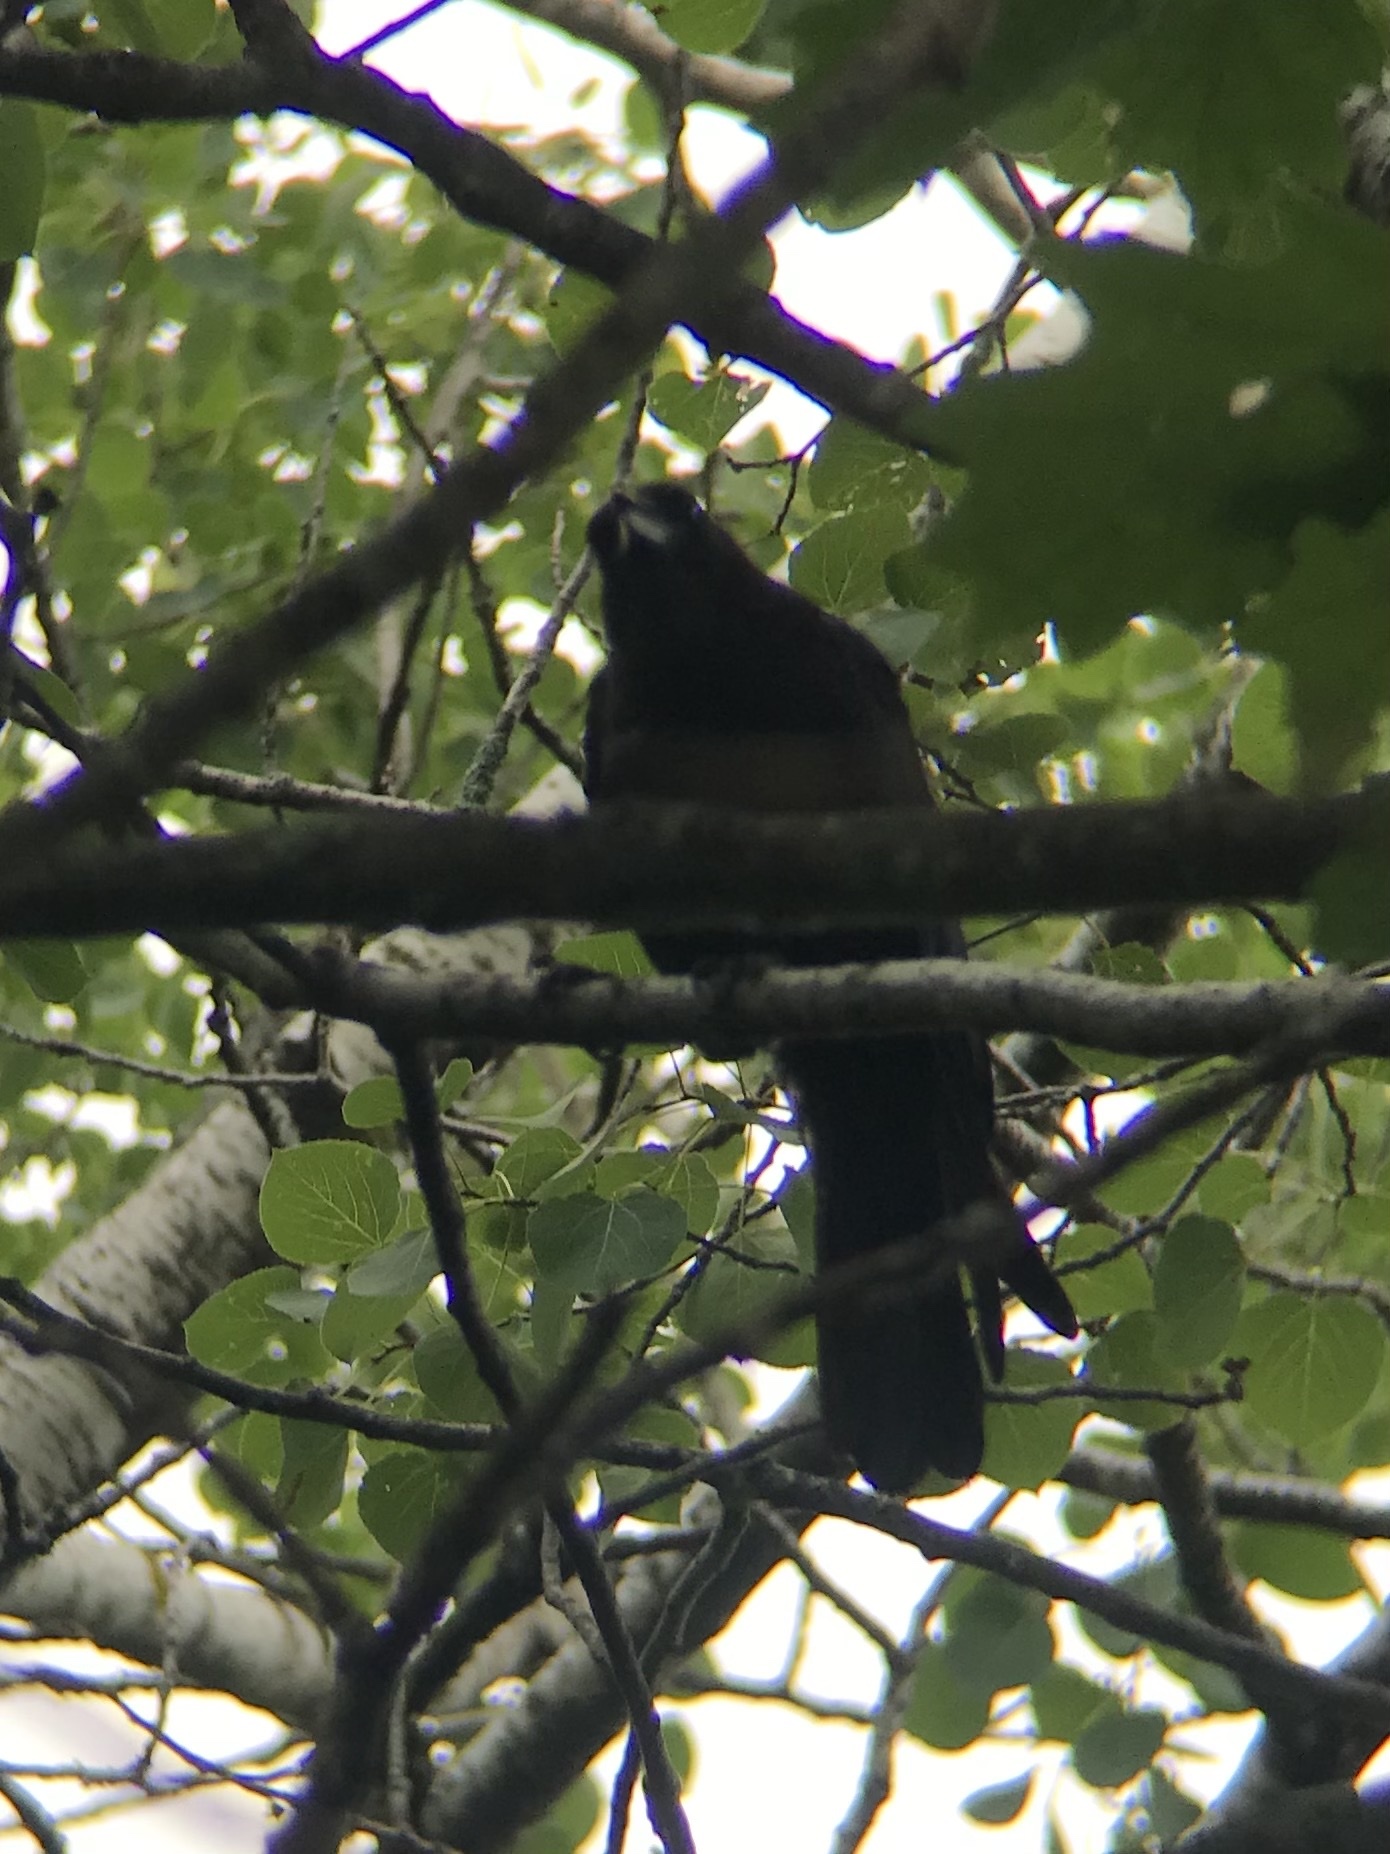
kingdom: Animalia
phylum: Chordata
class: Aves
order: Passeriformes
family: Corvidae
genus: Corvus
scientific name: Corvus brachyrhynchos
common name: American crow
